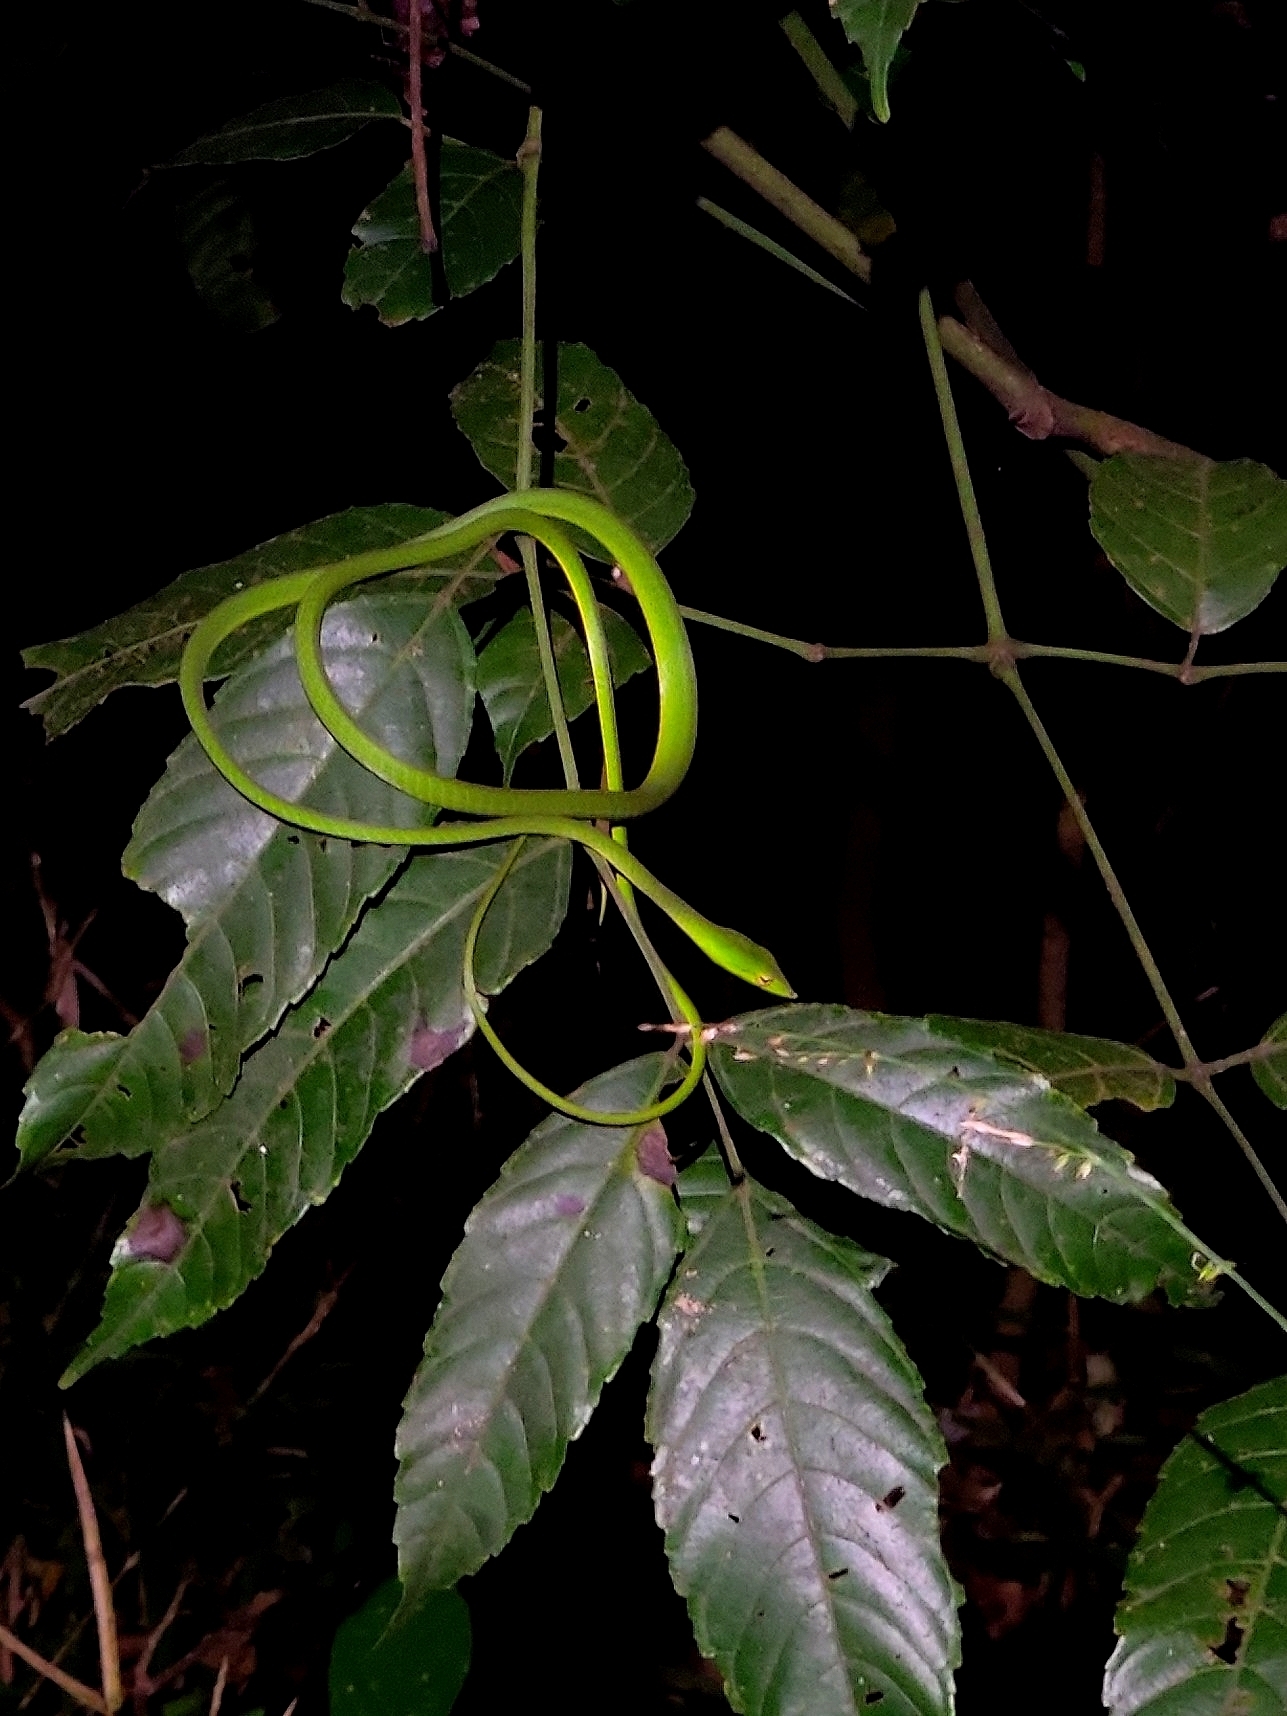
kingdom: Animalia
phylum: Chordata
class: Squamata
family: Colubridae
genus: Ahaetulla
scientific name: Ahaetulla borealis
